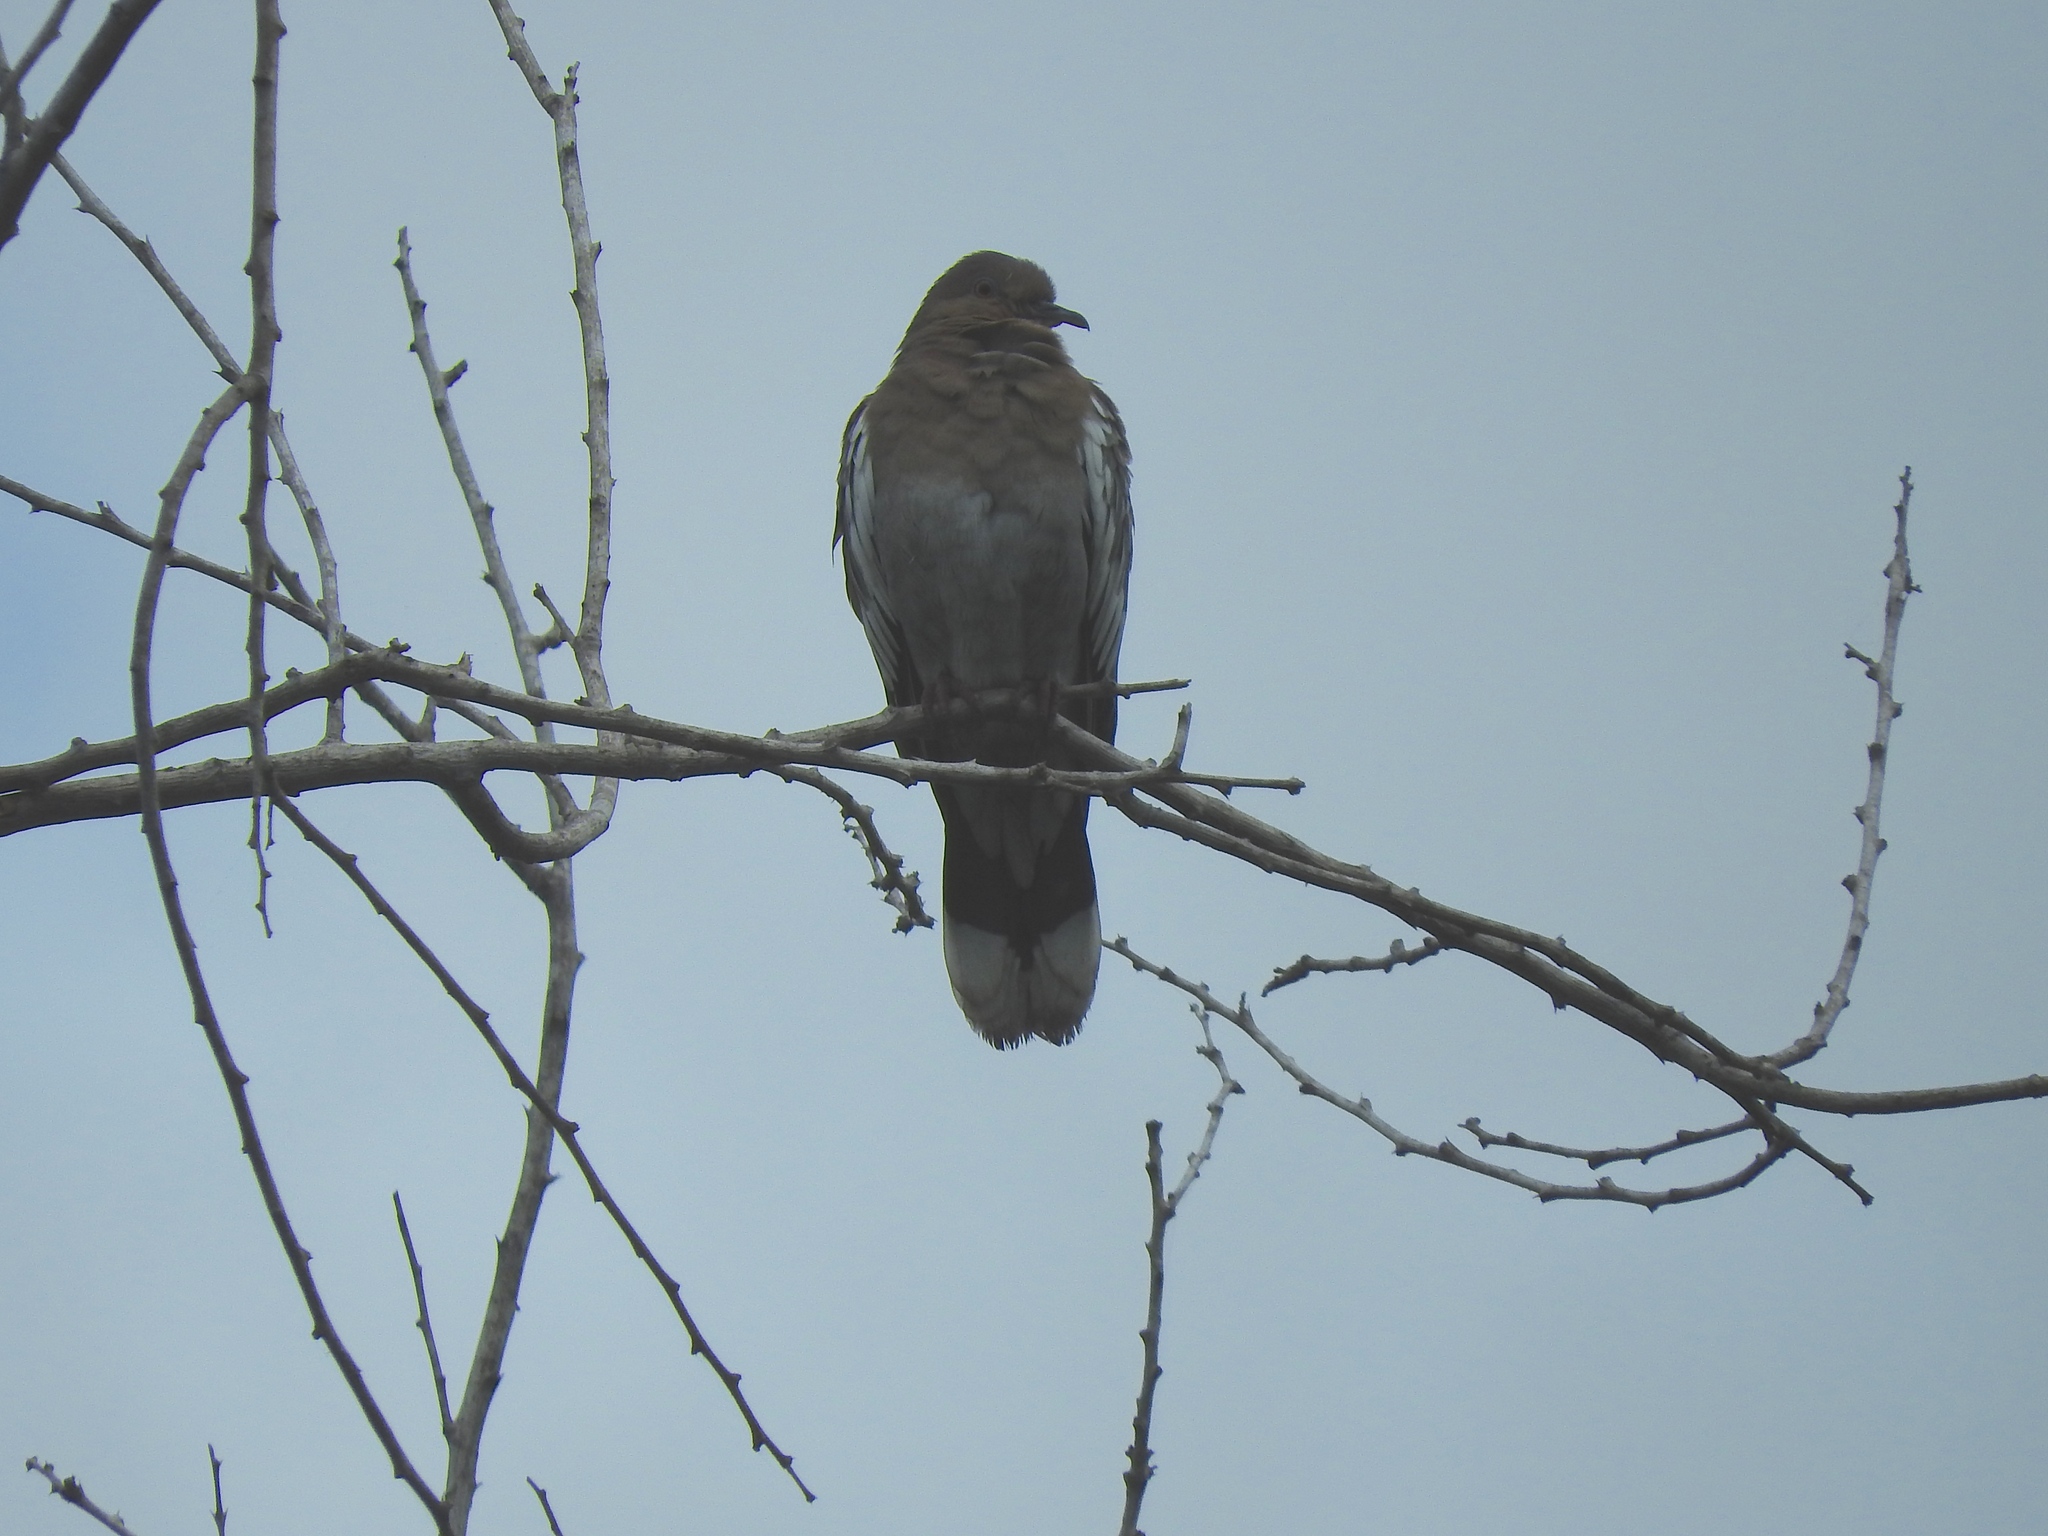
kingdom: Animalia
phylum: Chordata
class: Aves
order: Columbiformes
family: Columbidae
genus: Zenaida
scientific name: Zenaida asiatica
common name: White-winged dove
